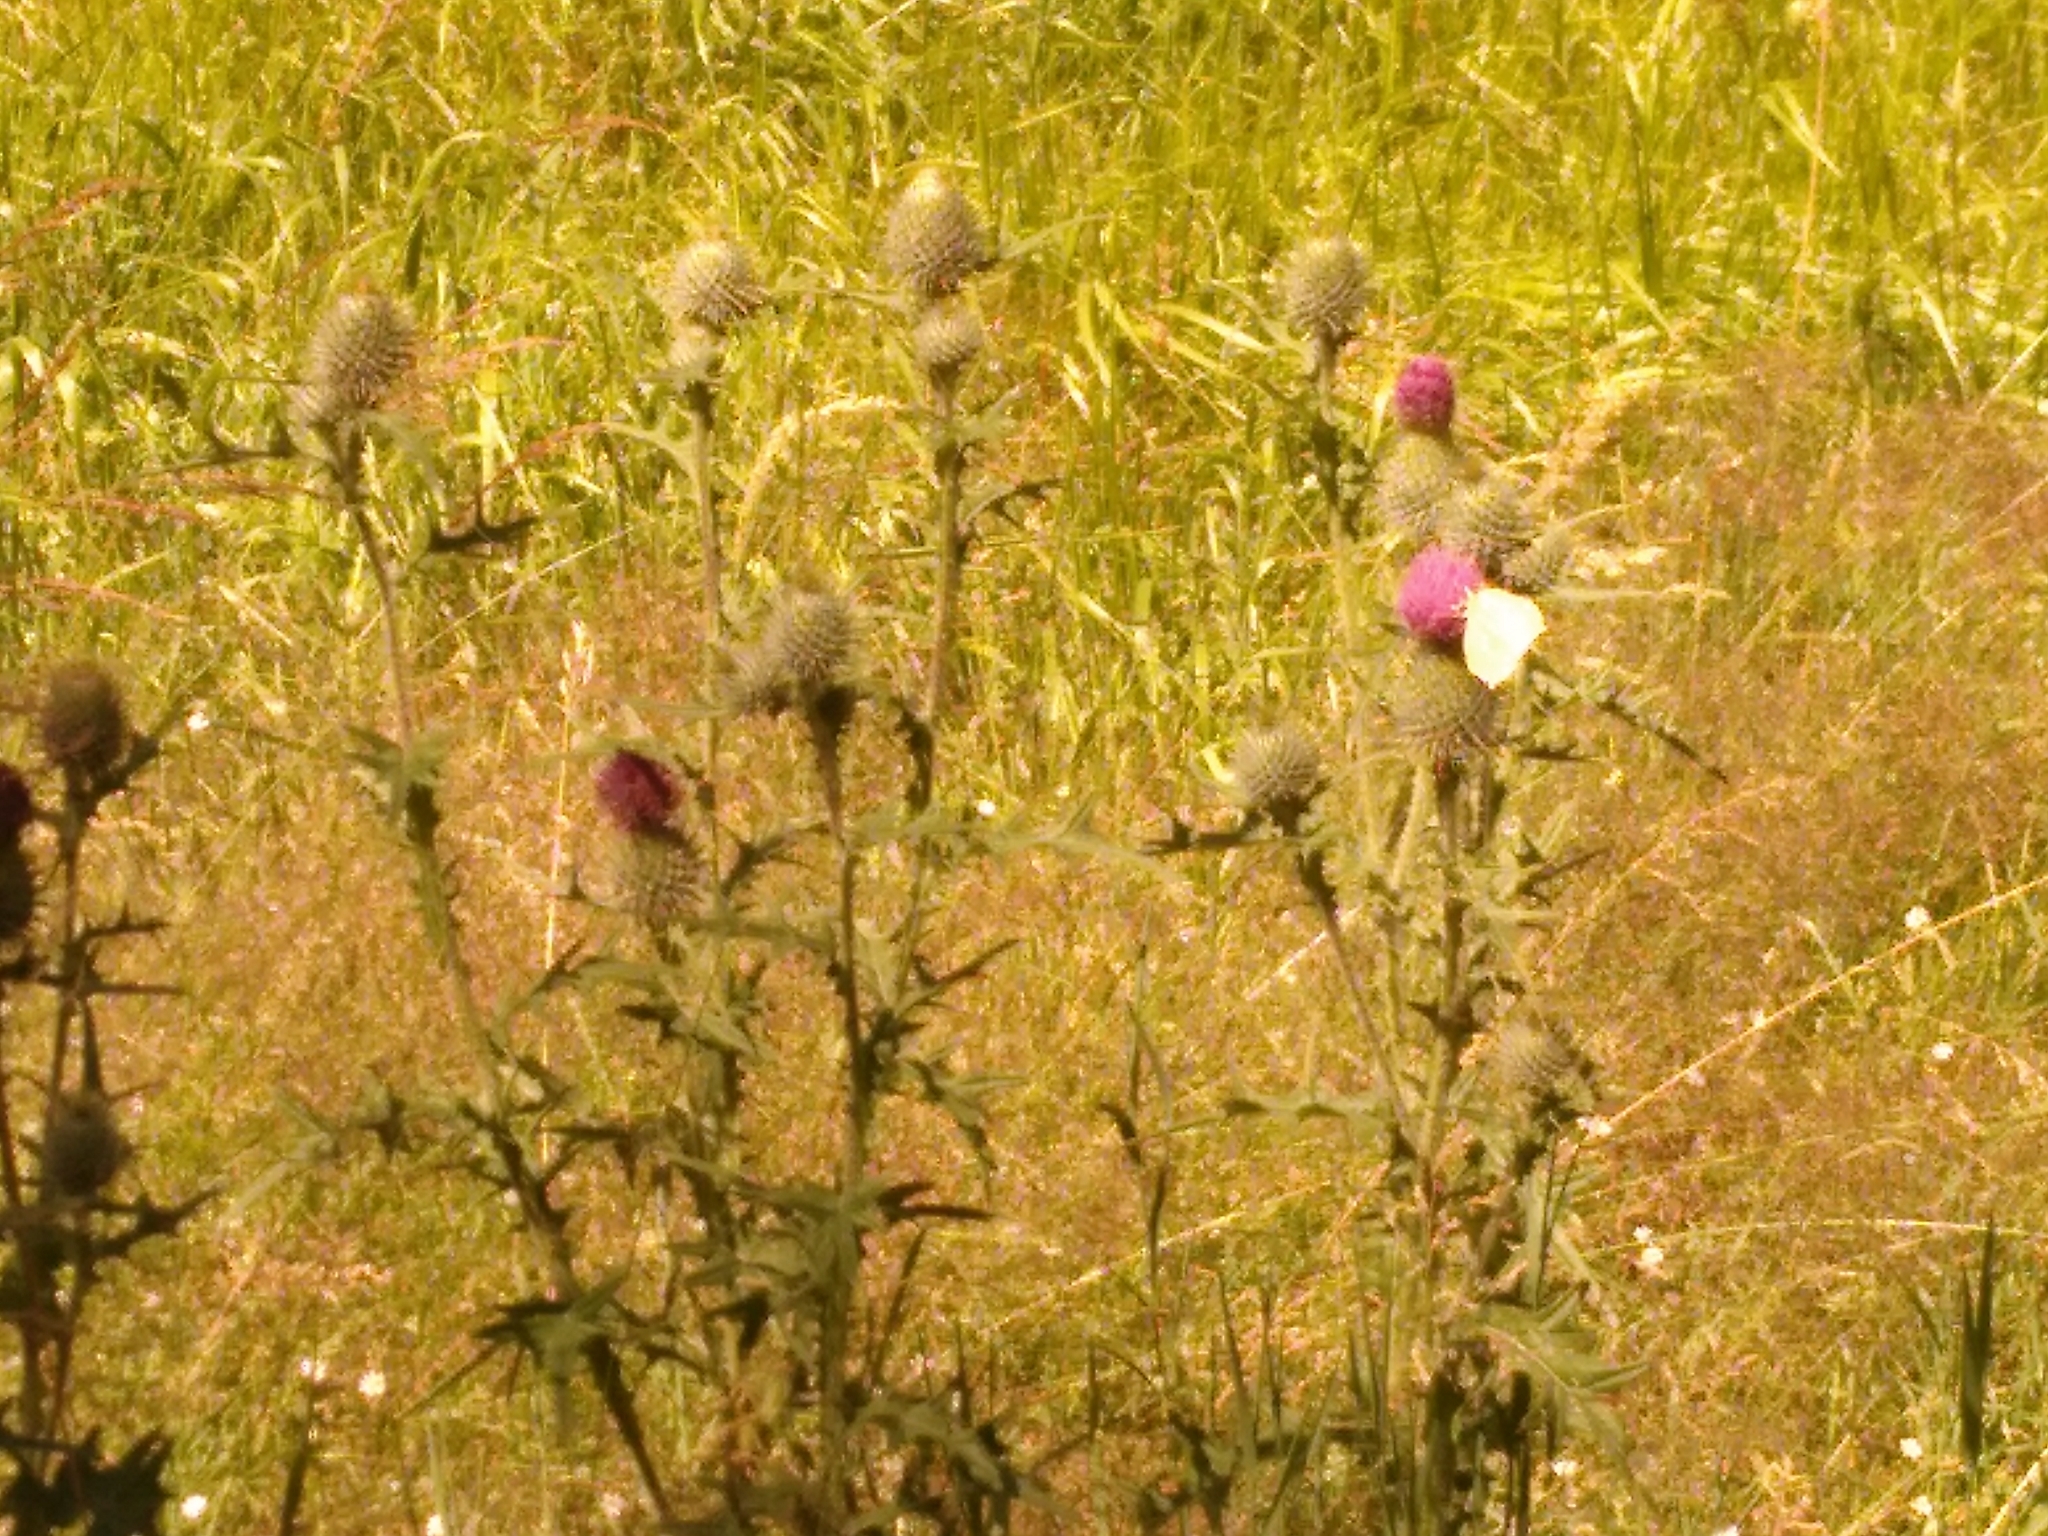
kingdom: Plantae
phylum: Tracheophyta
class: Magnoliopsida
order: Asterales
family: Asteraceae
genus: Cirsium
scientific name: Cirsium vulgare
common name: Bull thistle
